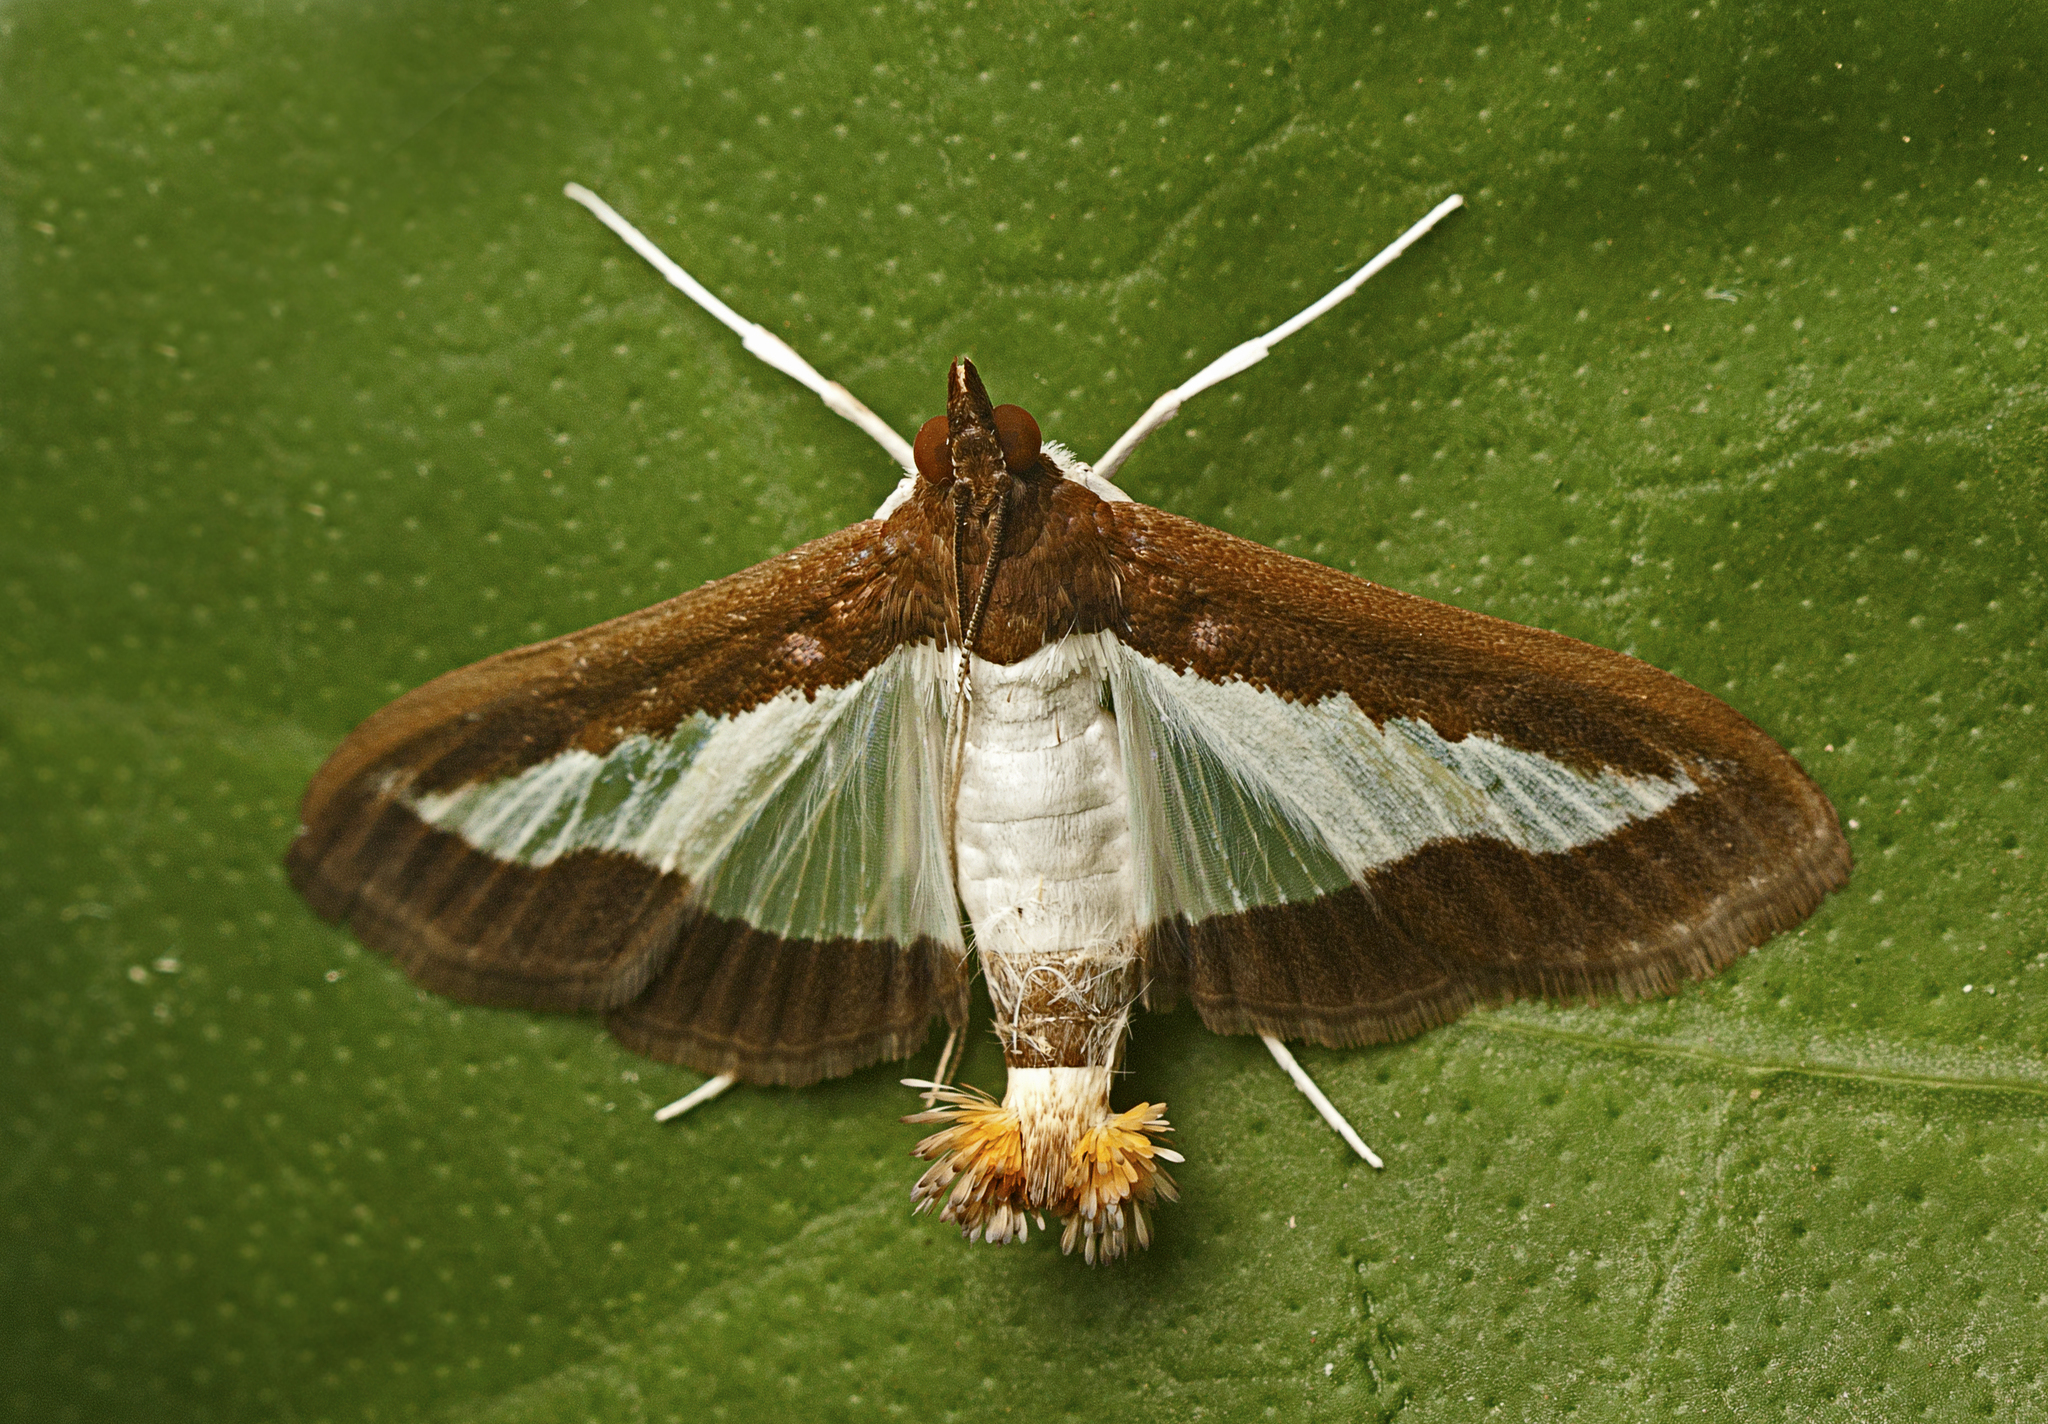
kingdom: Animalia
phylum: Arthropoda
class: Insecta
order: Lepidoptera
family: Crambidae
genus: Diaphania
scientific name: Diaphania indica
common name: Cucumber moth
